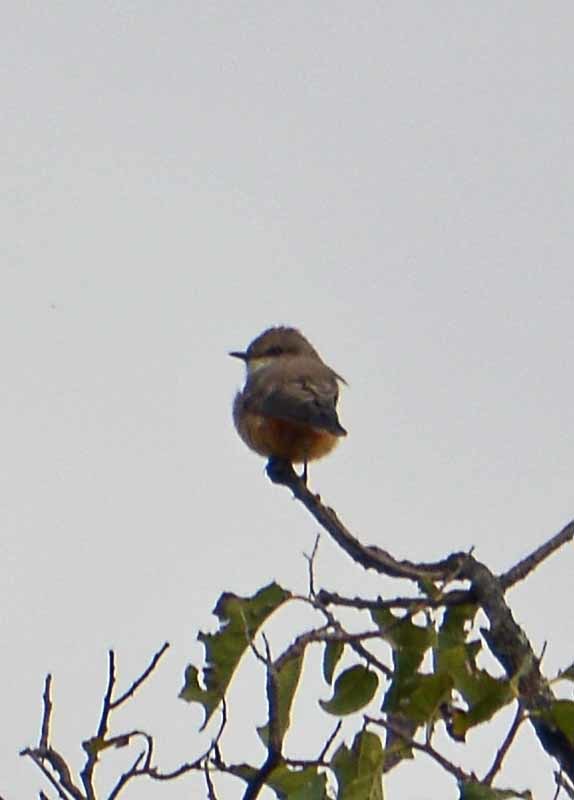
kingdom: Animalia
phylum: Chordata
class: Aves
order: Passeriformes
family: Tyrannidae
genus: Pyrocephalus
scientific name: Pyrocephalus rubinus
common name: Vermilion flycatcher
